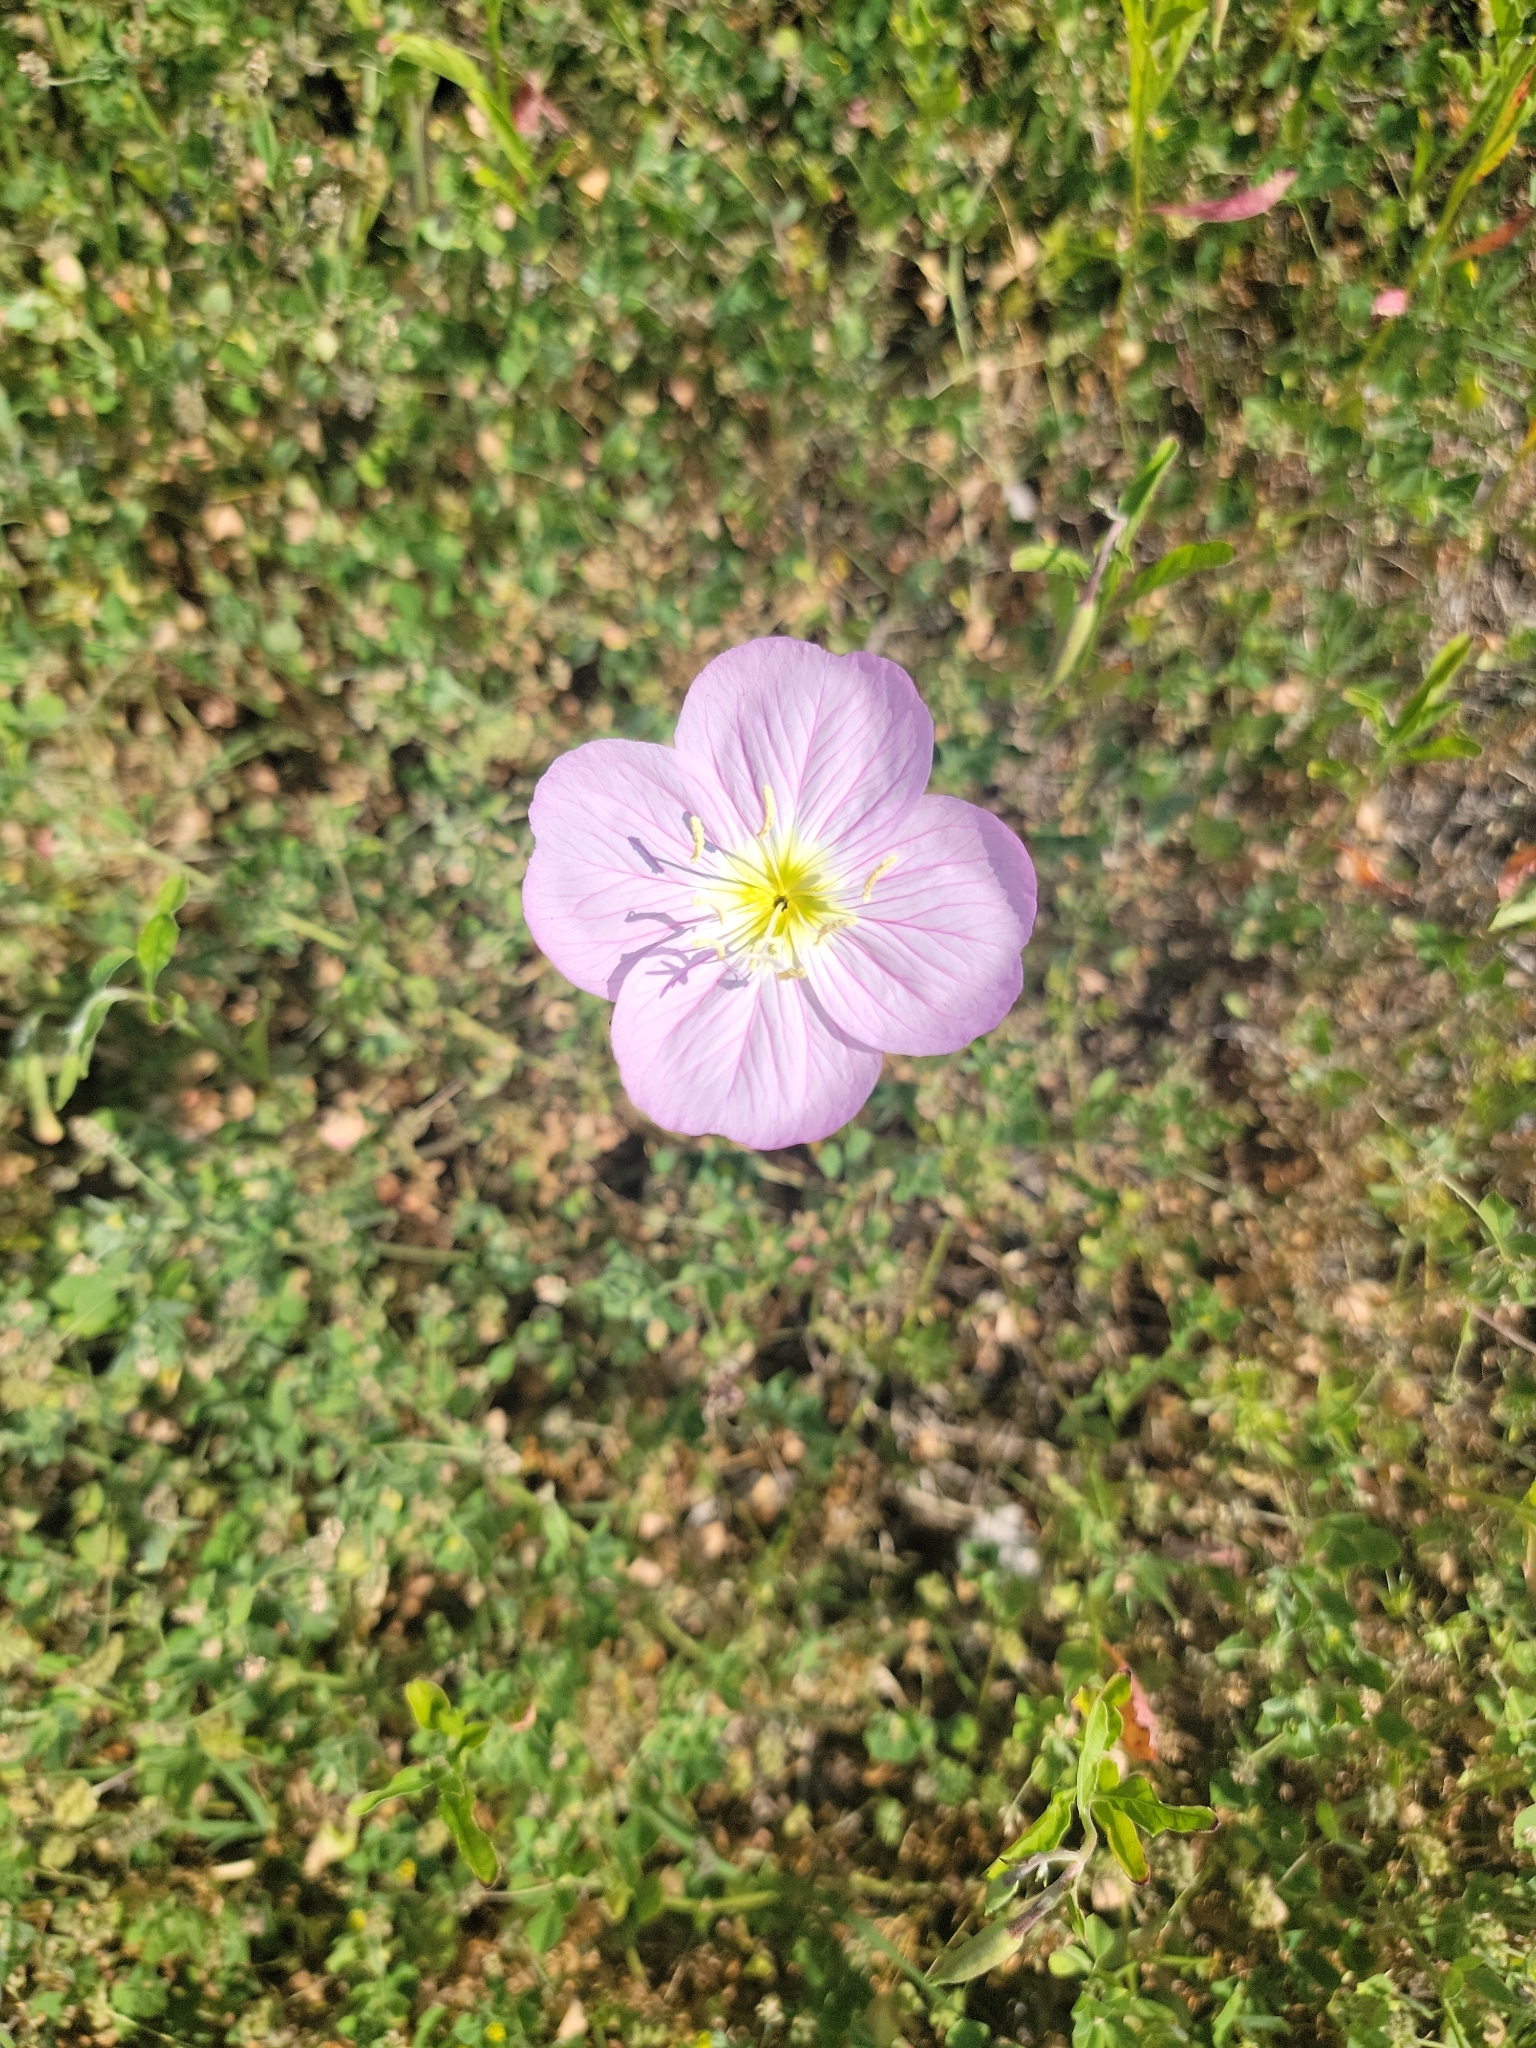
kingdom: Plantae
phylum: Tracheophyta
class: Magnoliopsida
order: Myrtales
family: Onagraceae
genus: Oenothera
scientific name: Oenothera speciosa
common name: White evening-primrose
